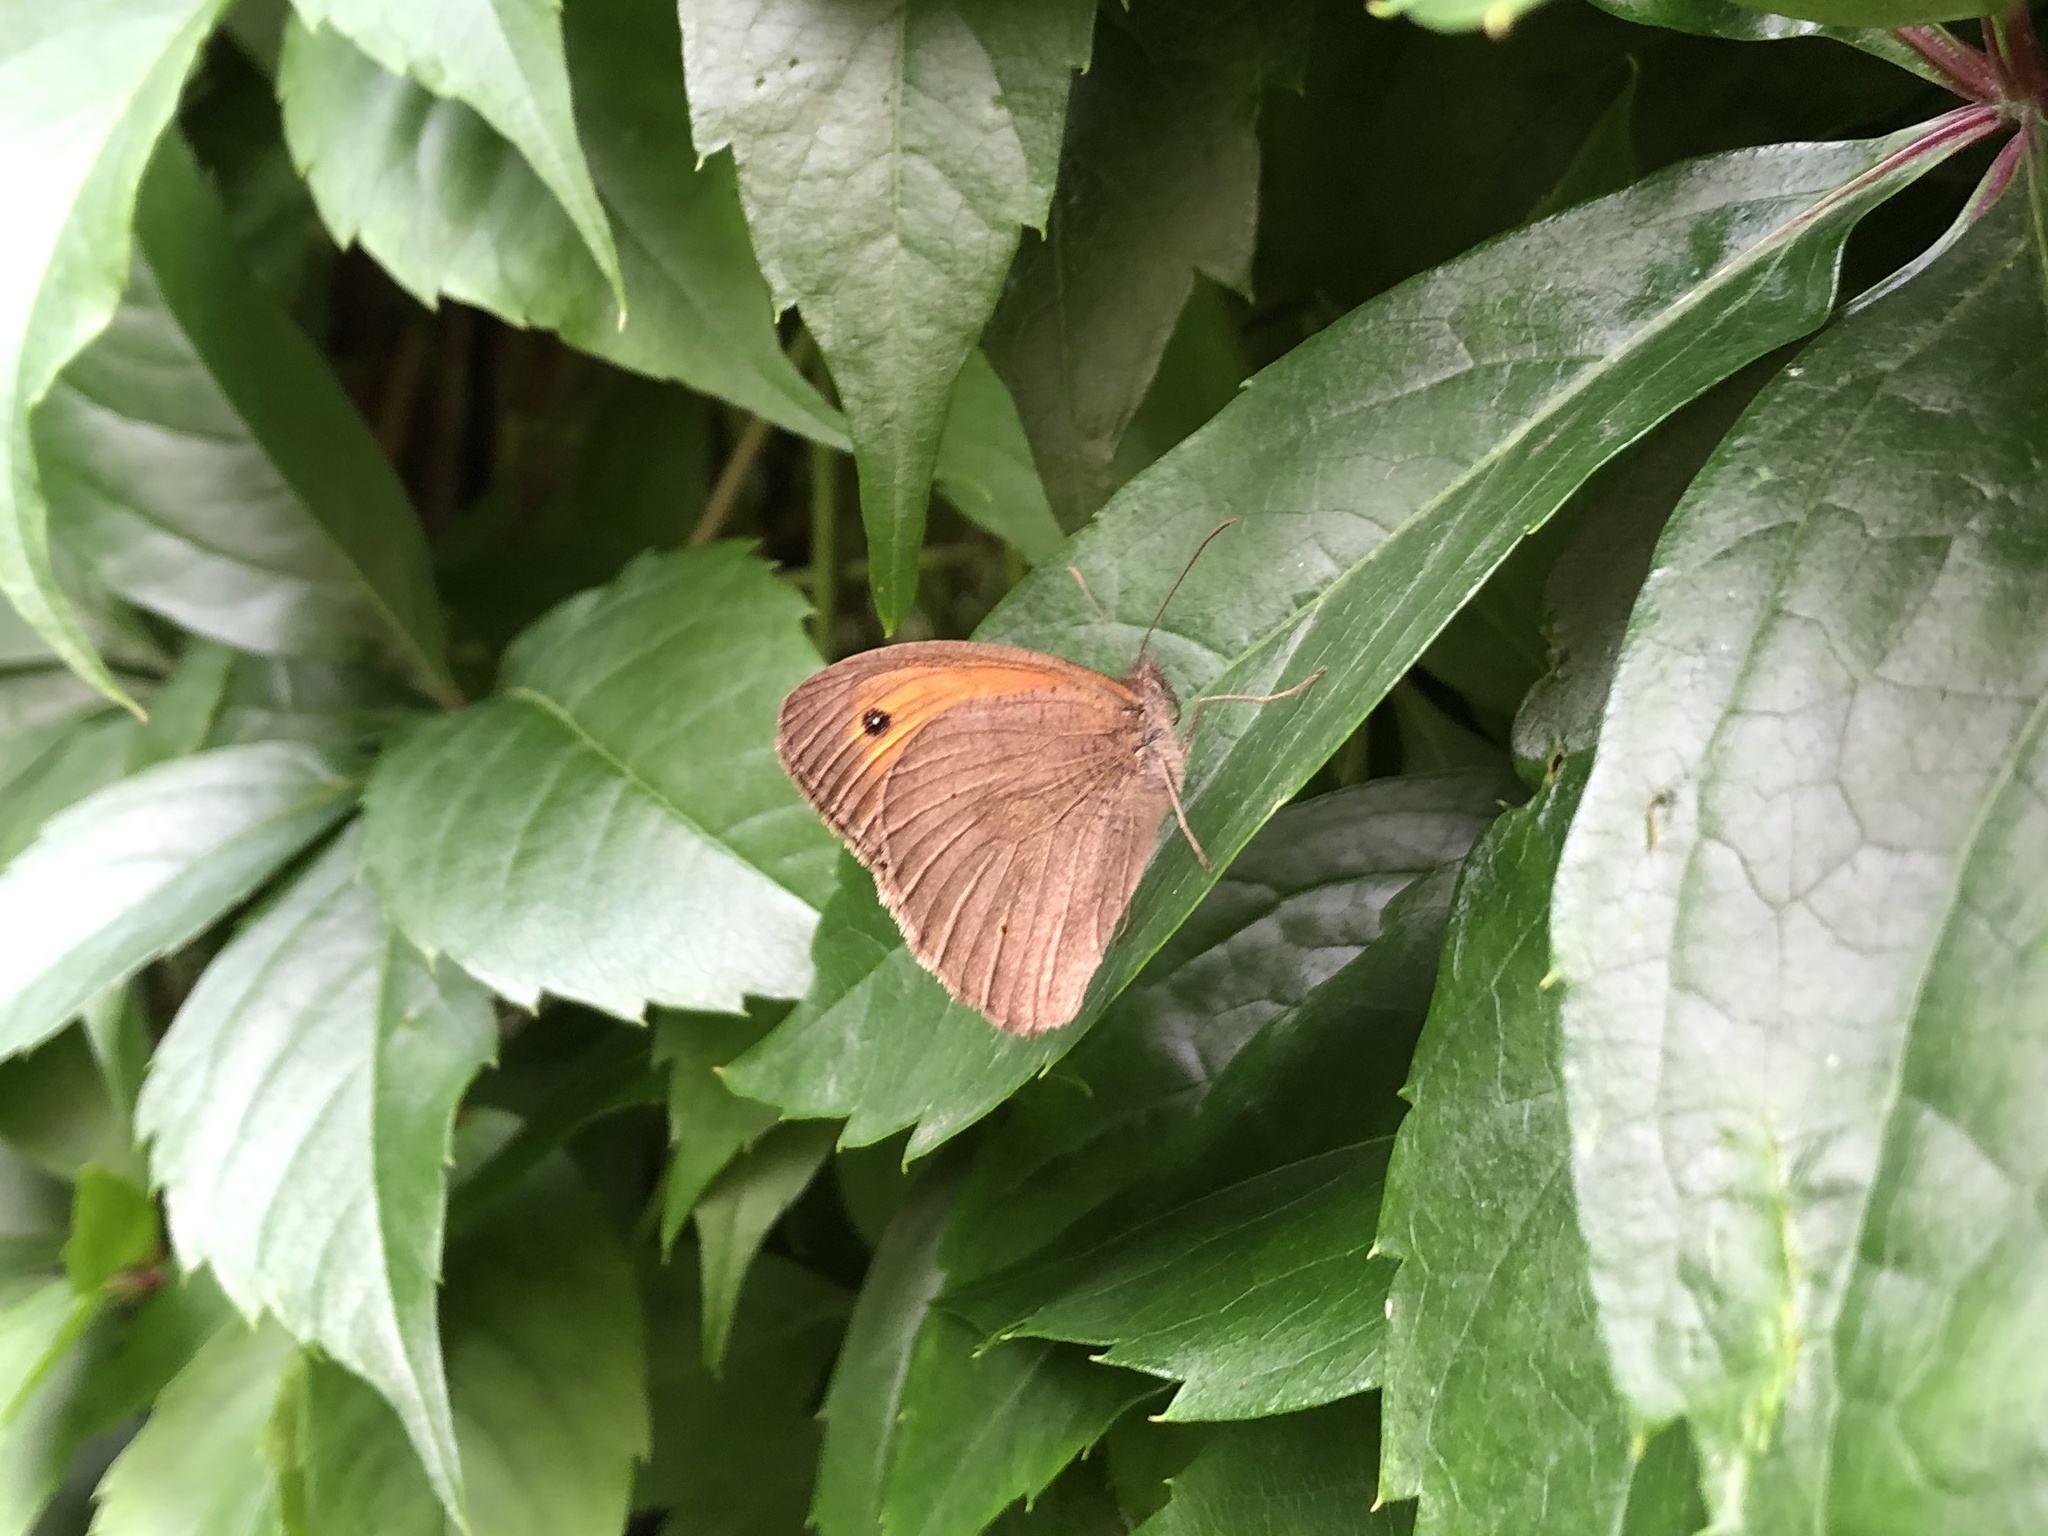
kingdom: Animalia
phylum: Arthropoda
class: Insecta
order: Lepidoptera
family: Nymphalidae
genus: Maniola
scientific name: Maniola jurtina
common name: Meadow brown
